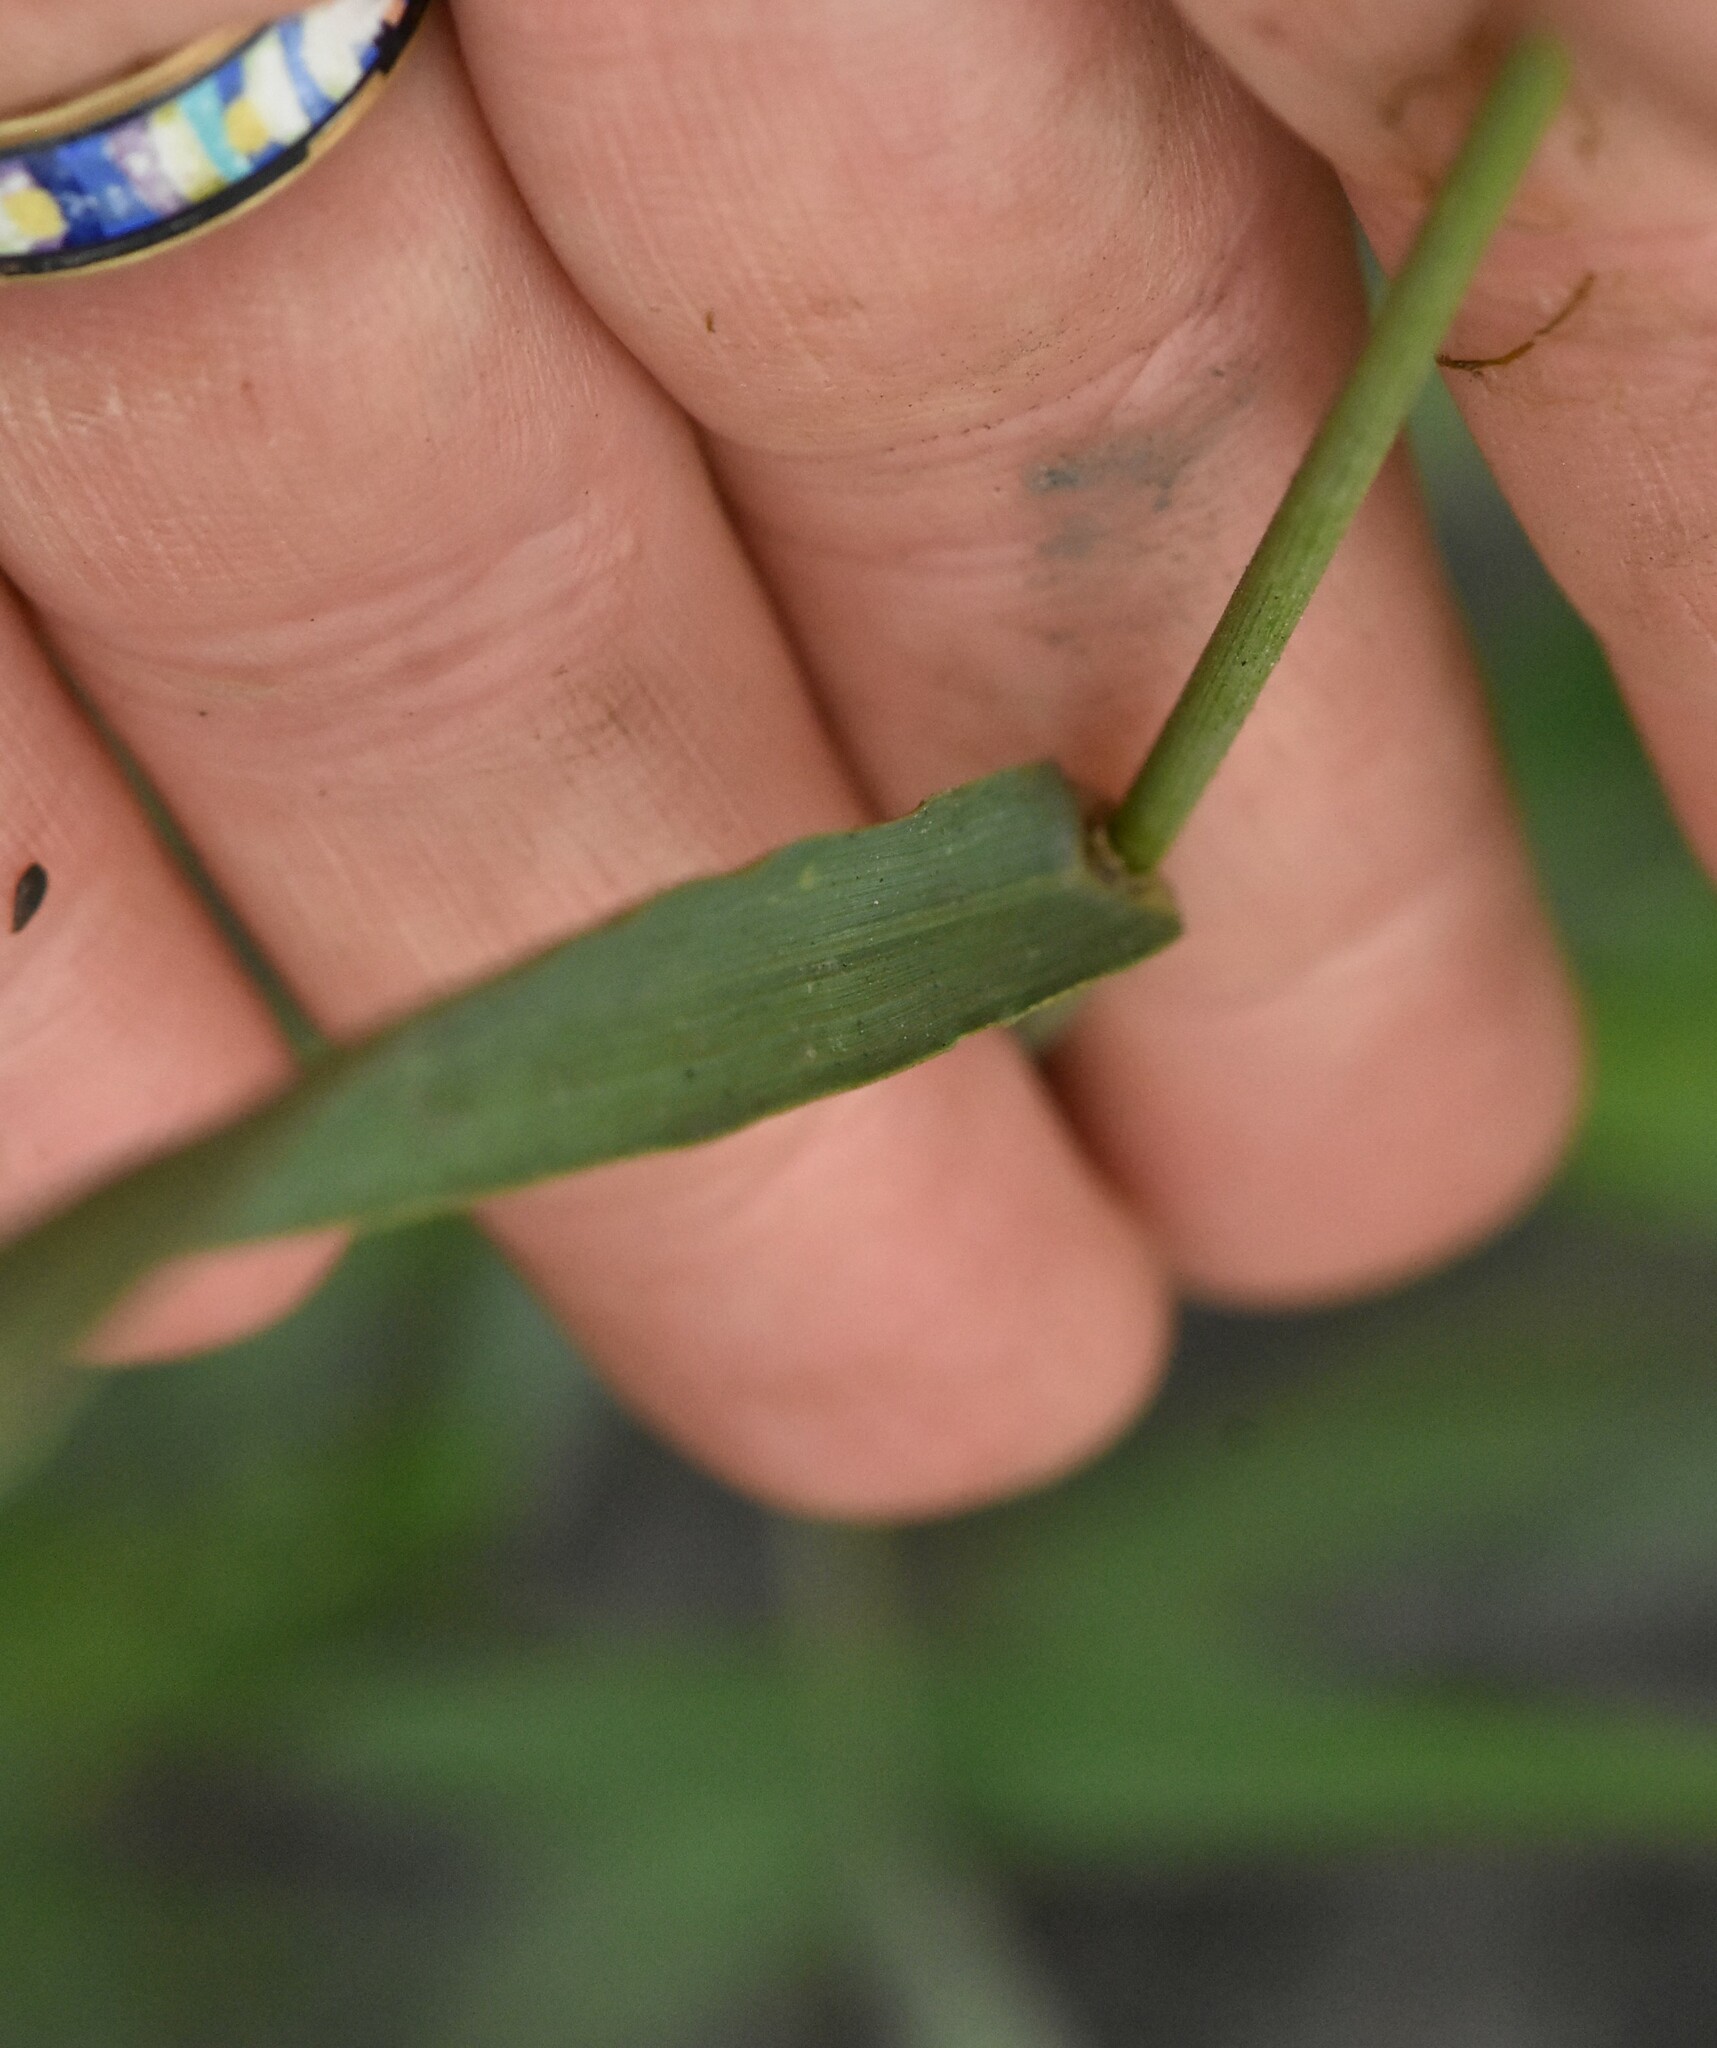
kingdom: Plantae
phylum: Tracheophyta
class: Liliopsida
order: Poales
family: Poaceae
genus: Bromus
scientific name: Bromus inermis
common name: Smooth brome
